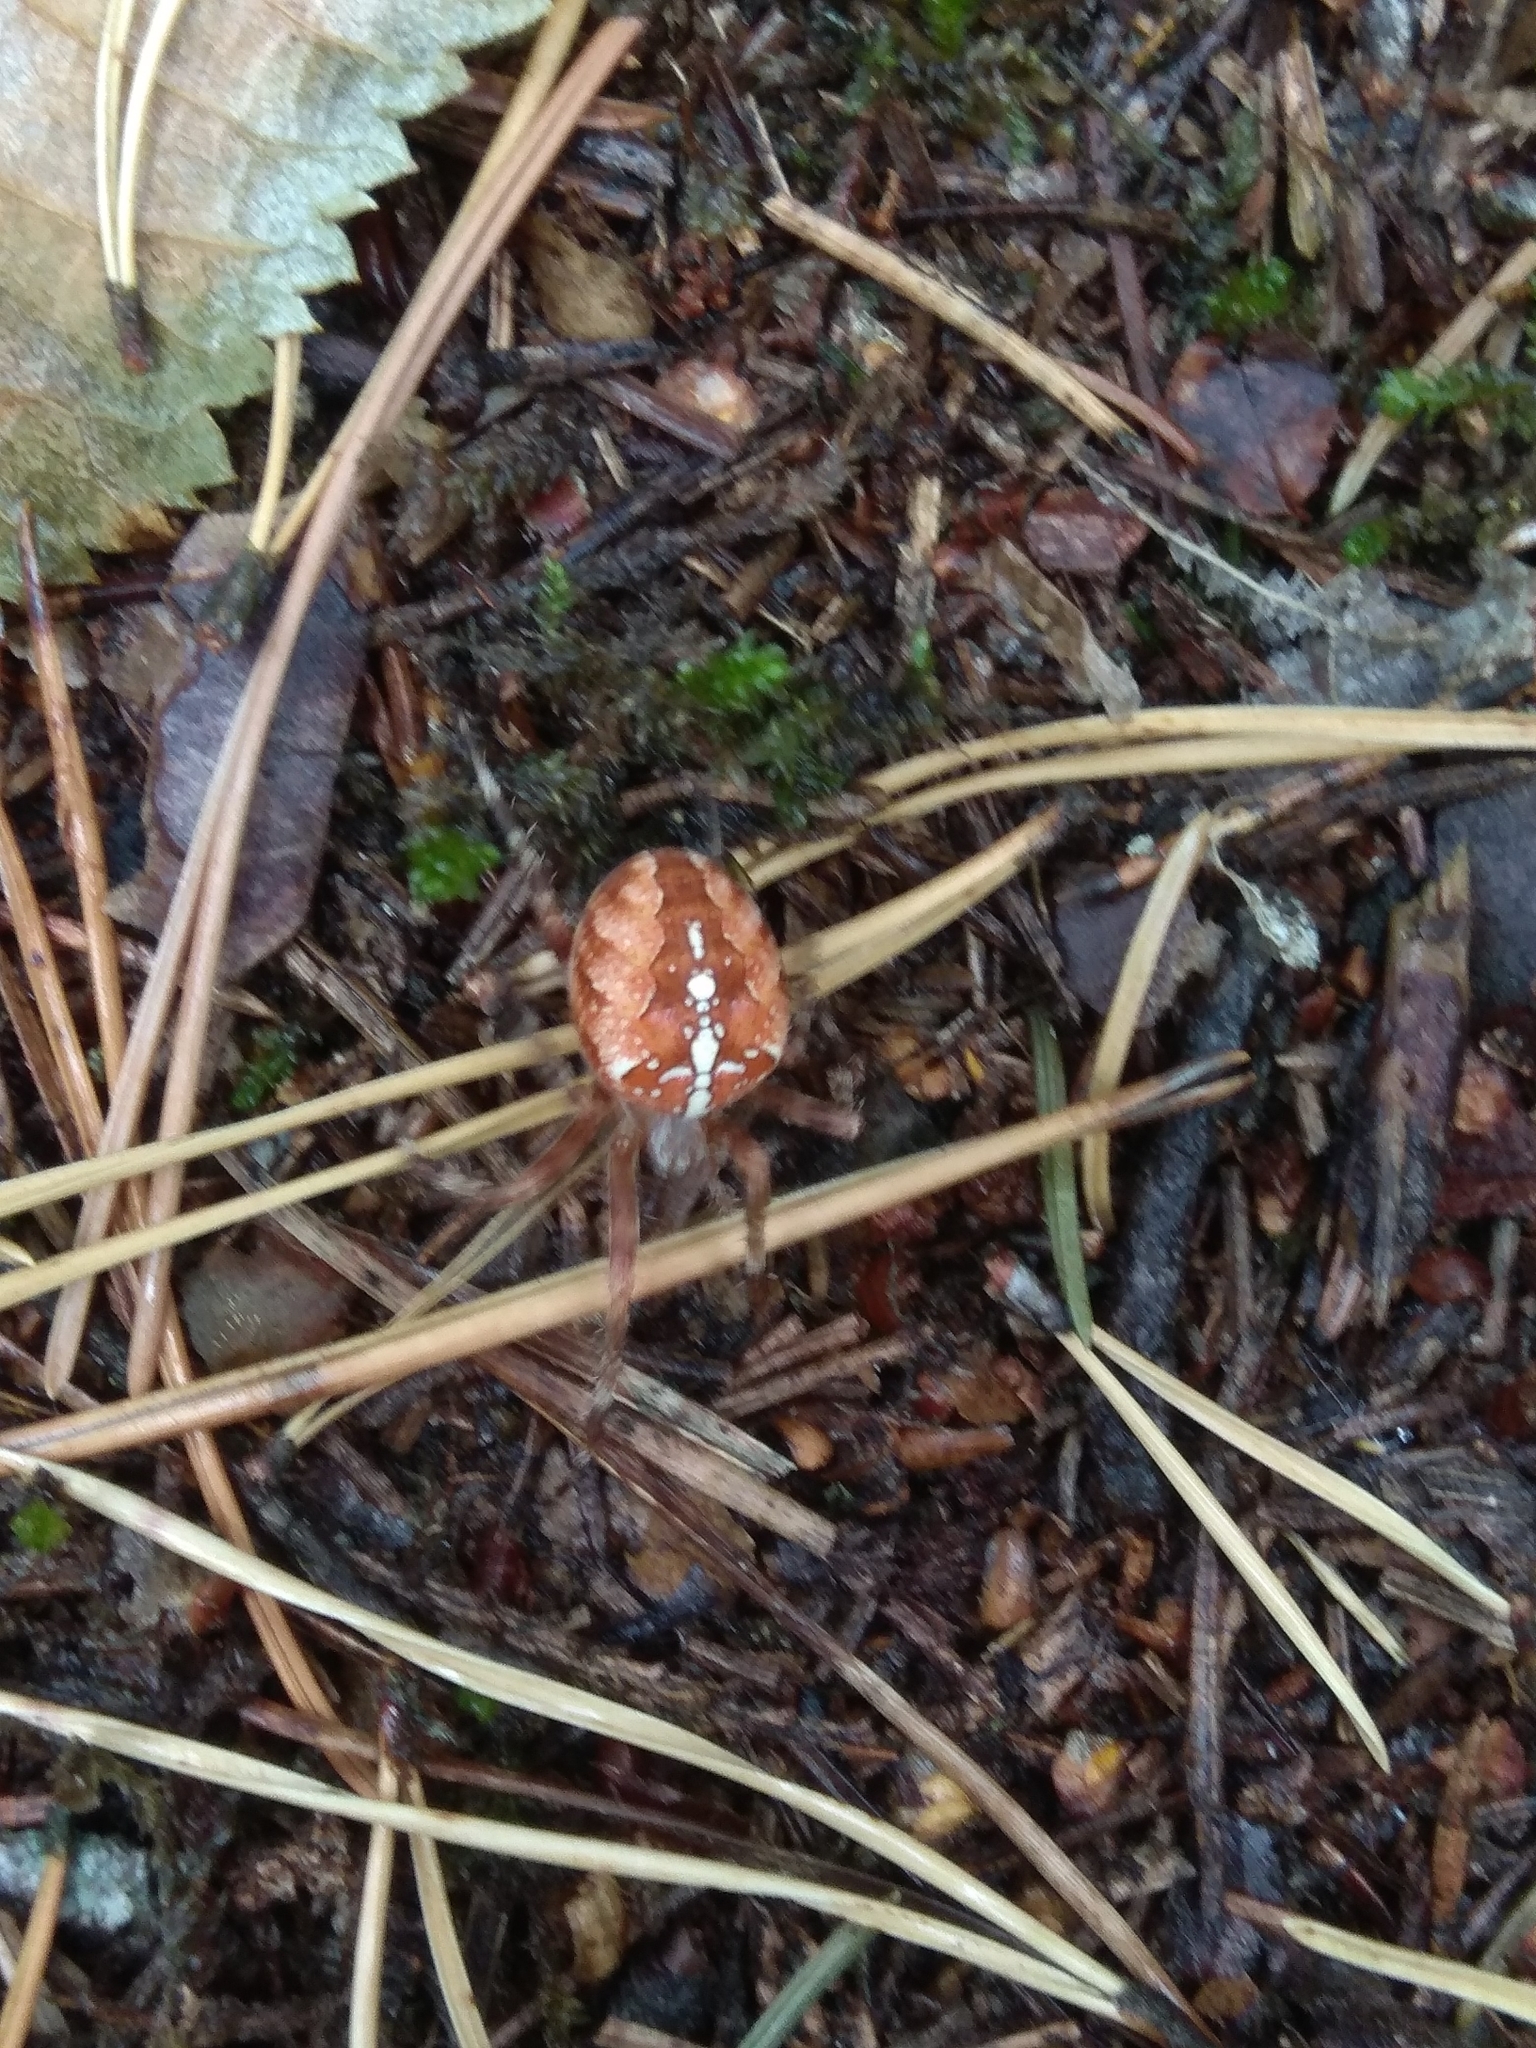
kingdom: Animalia
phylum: Arthropoda
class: Arachnida
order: Araneae
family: Araneidae
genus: Araneus
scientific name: Araneus diadematus
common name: Cross orbweaver
